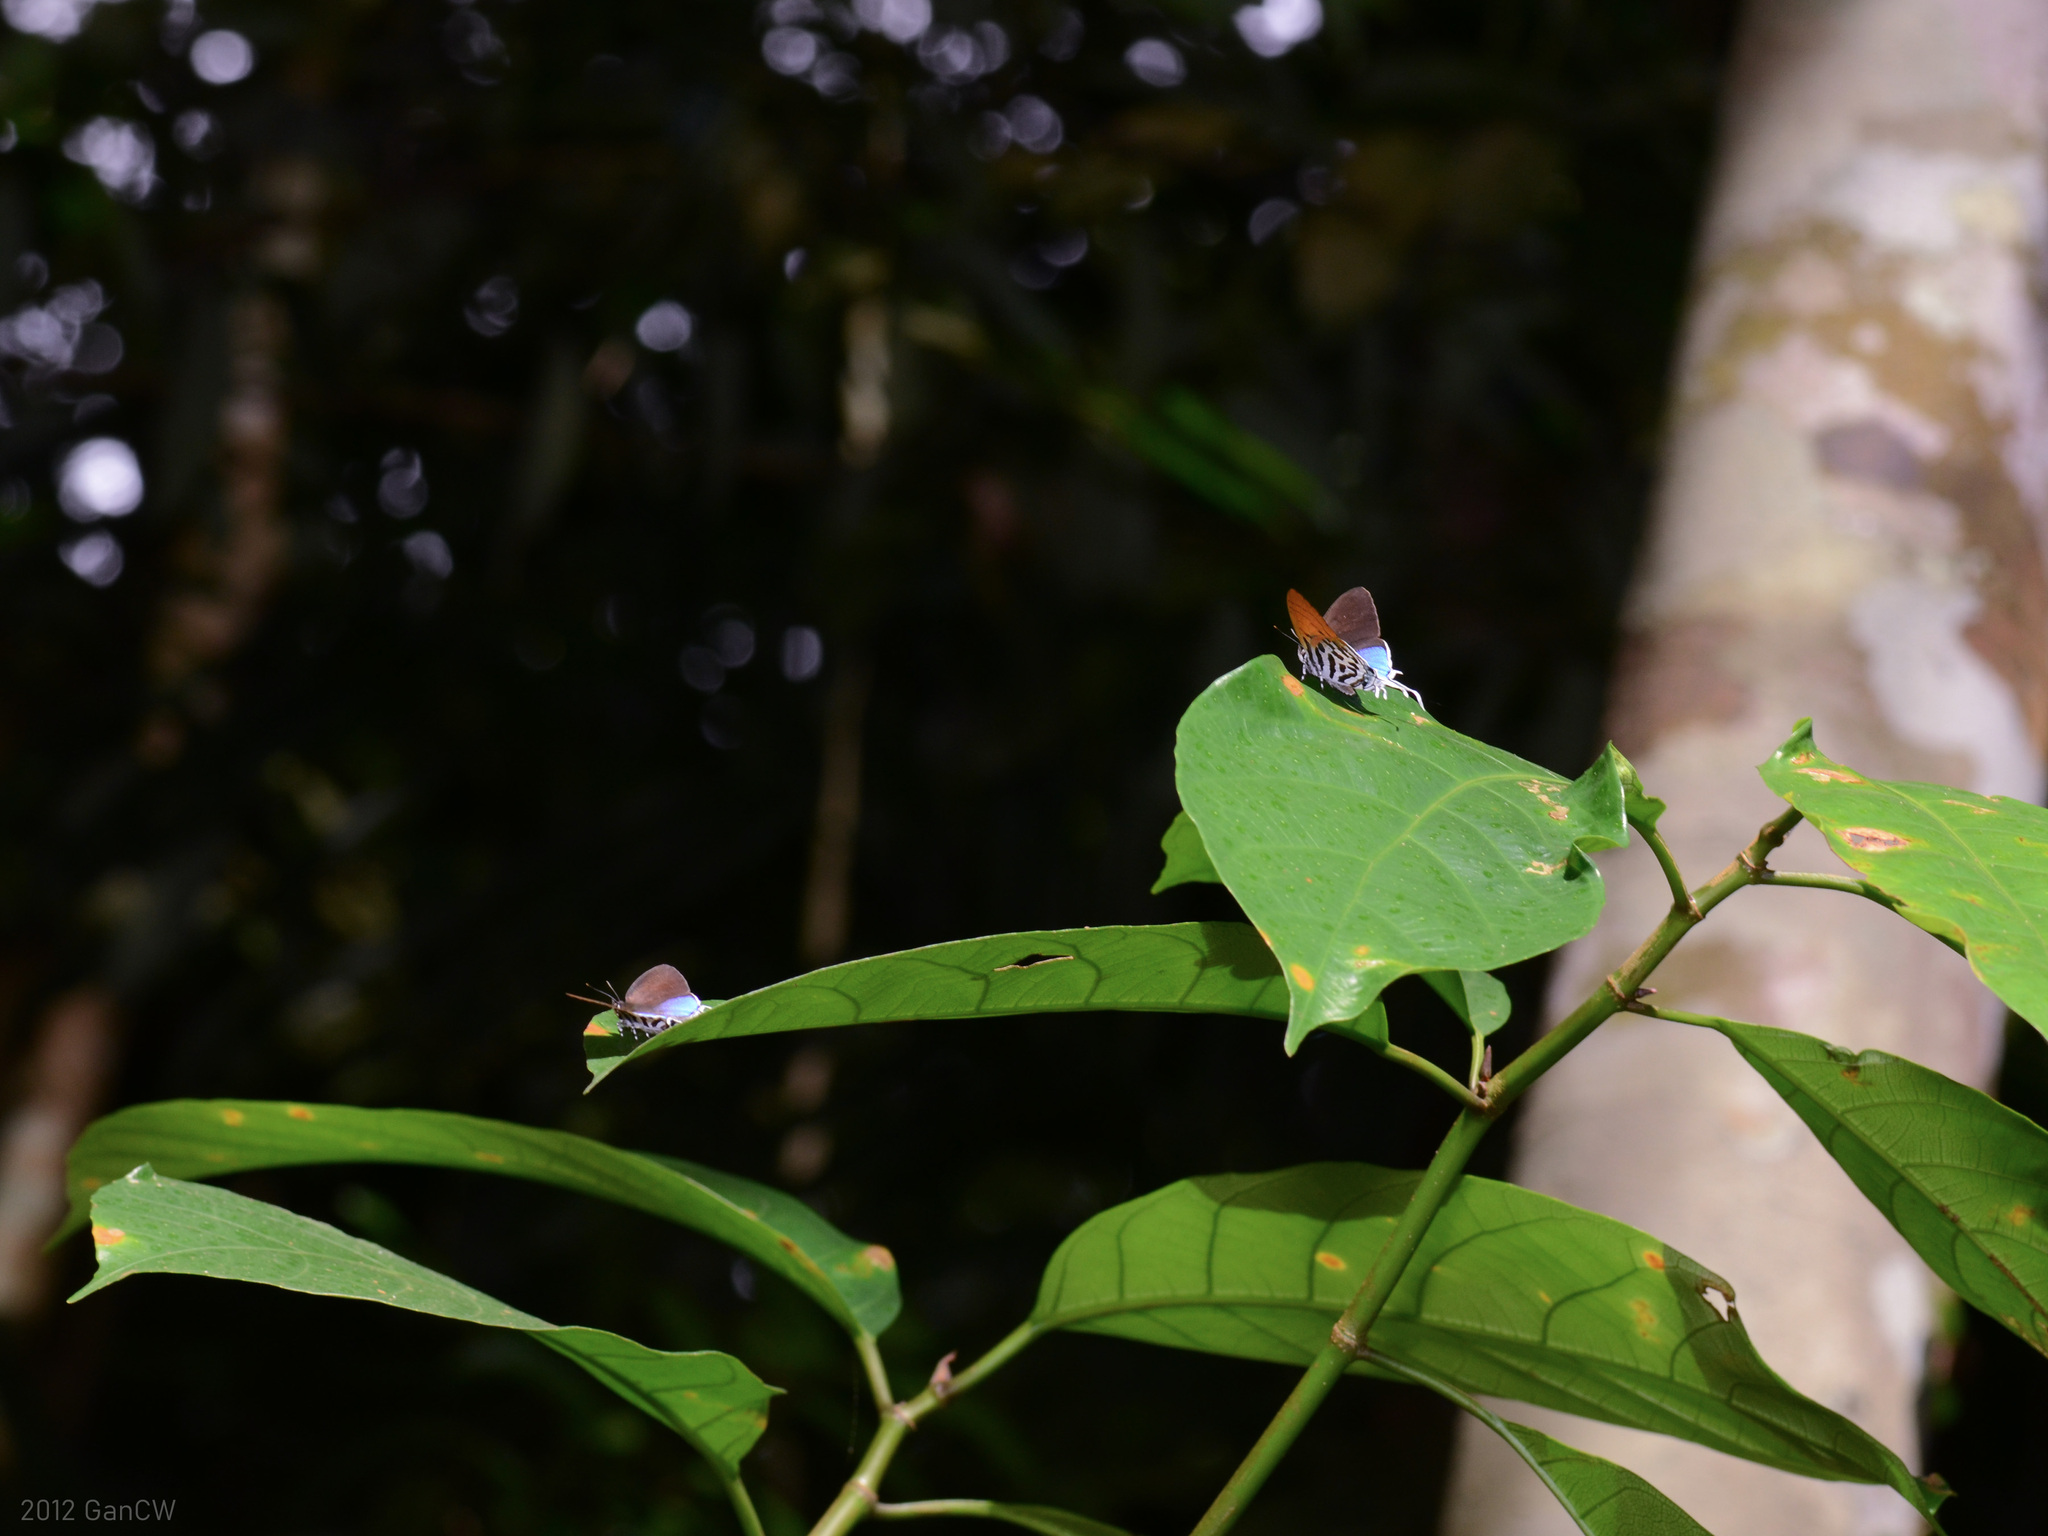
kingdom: Animalia
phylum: Arthropoda
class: Insecta
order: Lepidoptera
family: Lycaenidae
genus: Drupadia
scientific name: Drupadia ravindra
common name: Common posy
